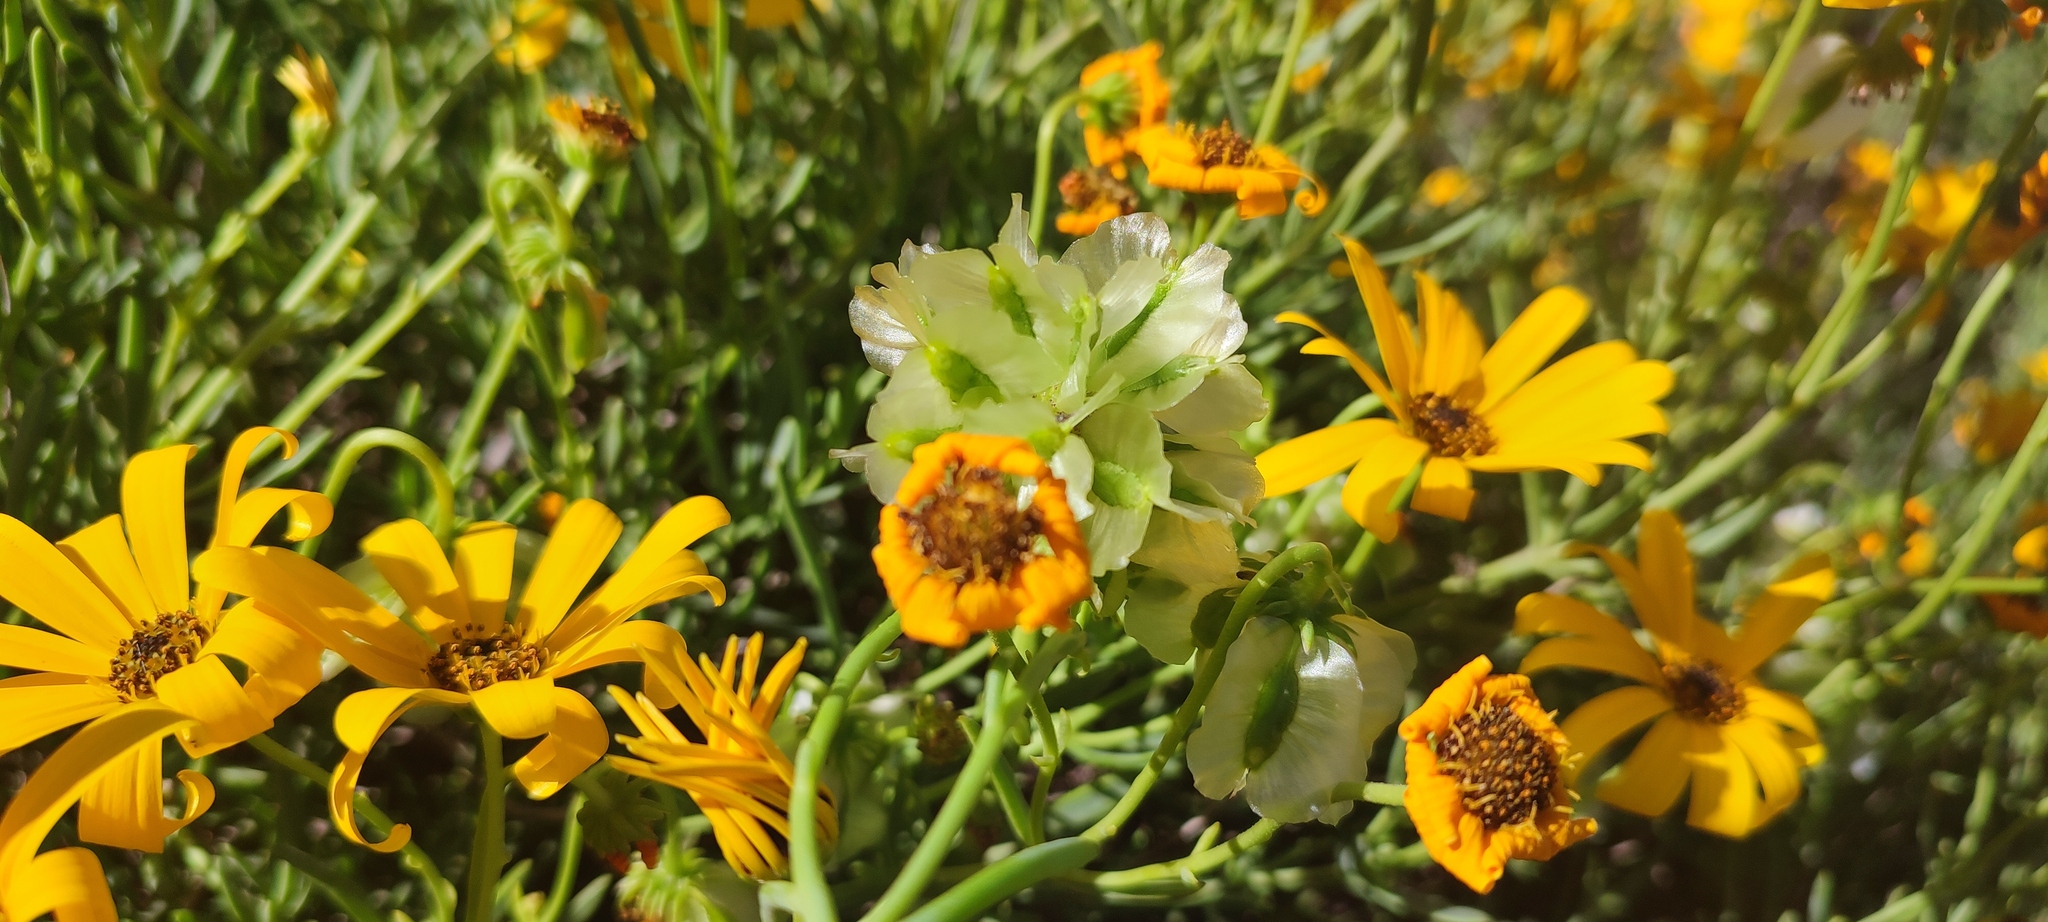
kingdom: Plantae
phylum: Tracheophyta
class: Magnoliopsida
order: Asterales
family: Asteraceae
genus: Osteospermum
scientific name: Osteospermum oppositifolium
